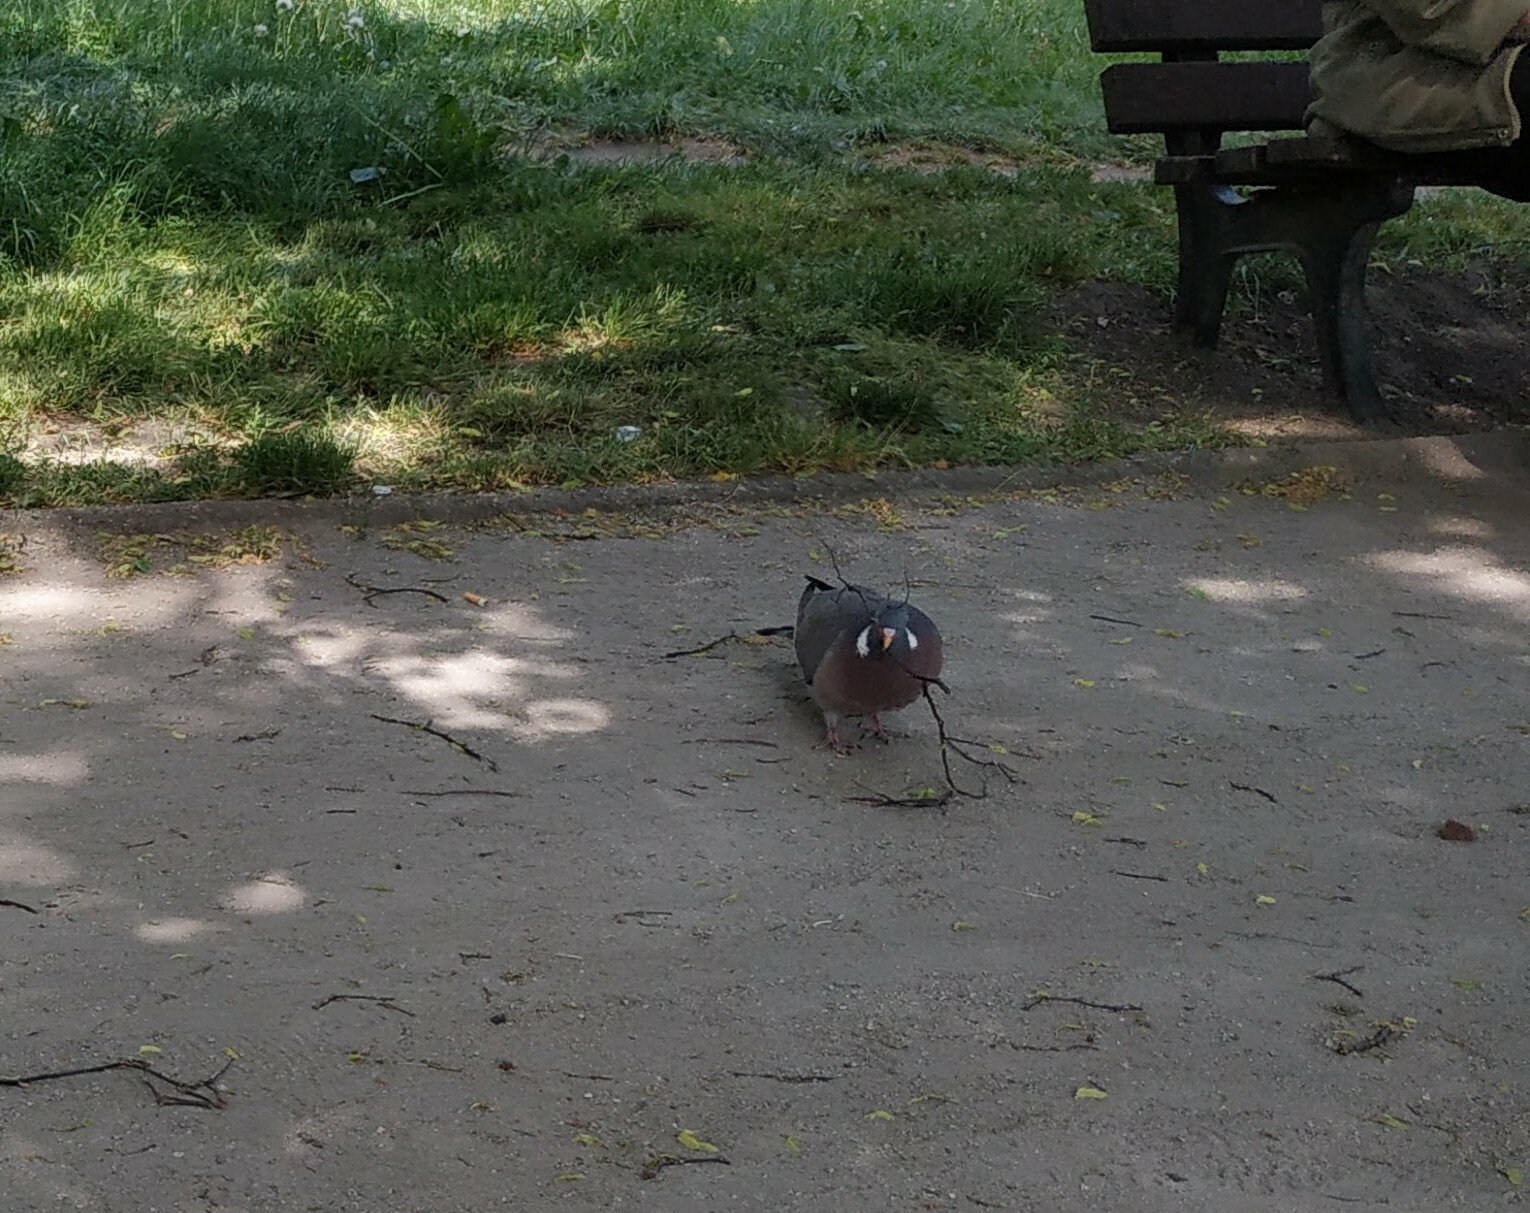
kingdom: Animalia
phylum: Chordata
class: Aves
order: Columbiformes
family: Columbidae
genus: Columba
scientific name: Columba palumbus
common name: Common wood pigeon
